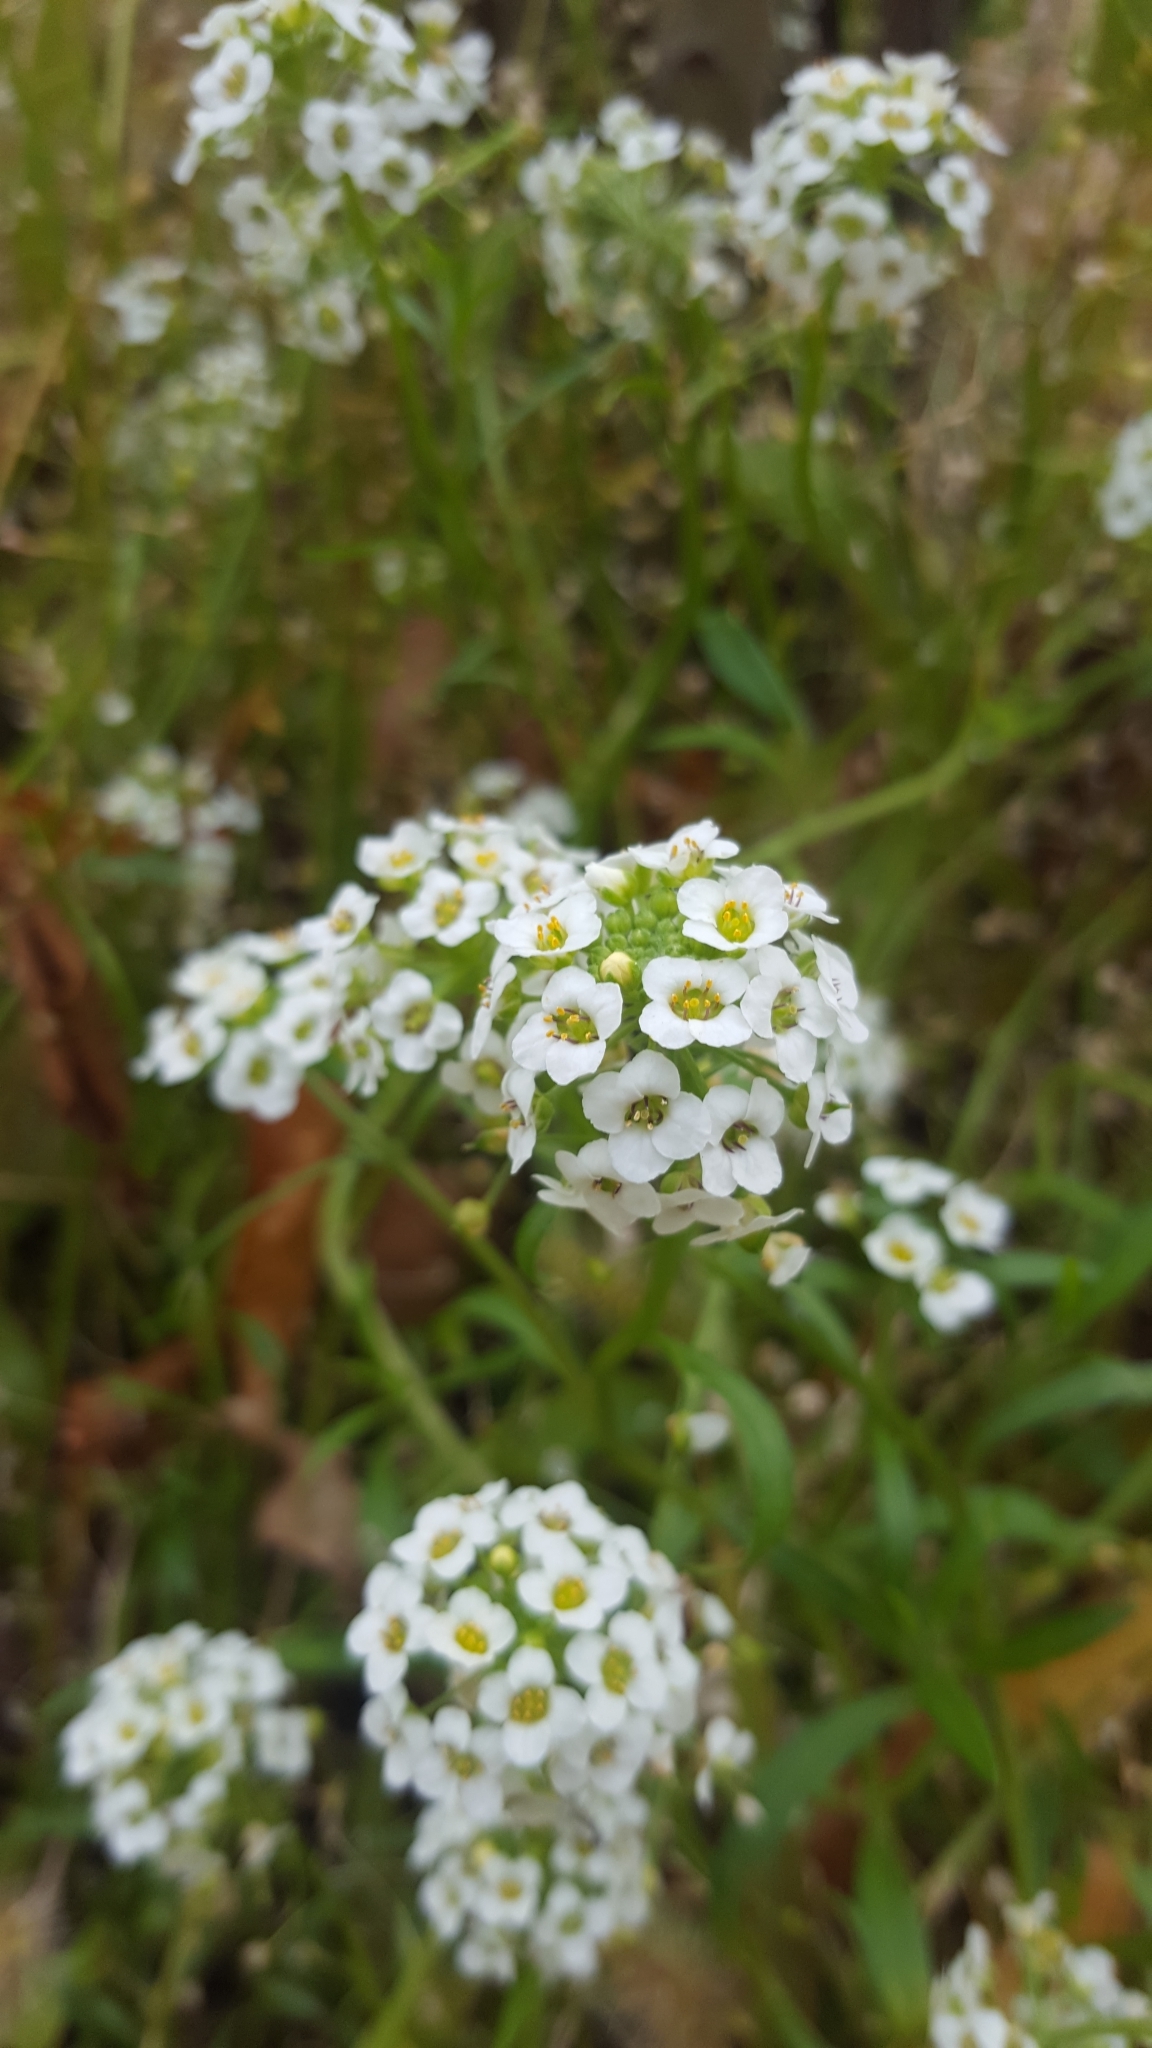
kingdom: Plantae
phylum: Tracheophyta
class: Magnoliopsida
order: Brassicales
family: Brassicaceae
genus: Lobularia
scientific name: Lobularia maritima
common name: Sweet alison
